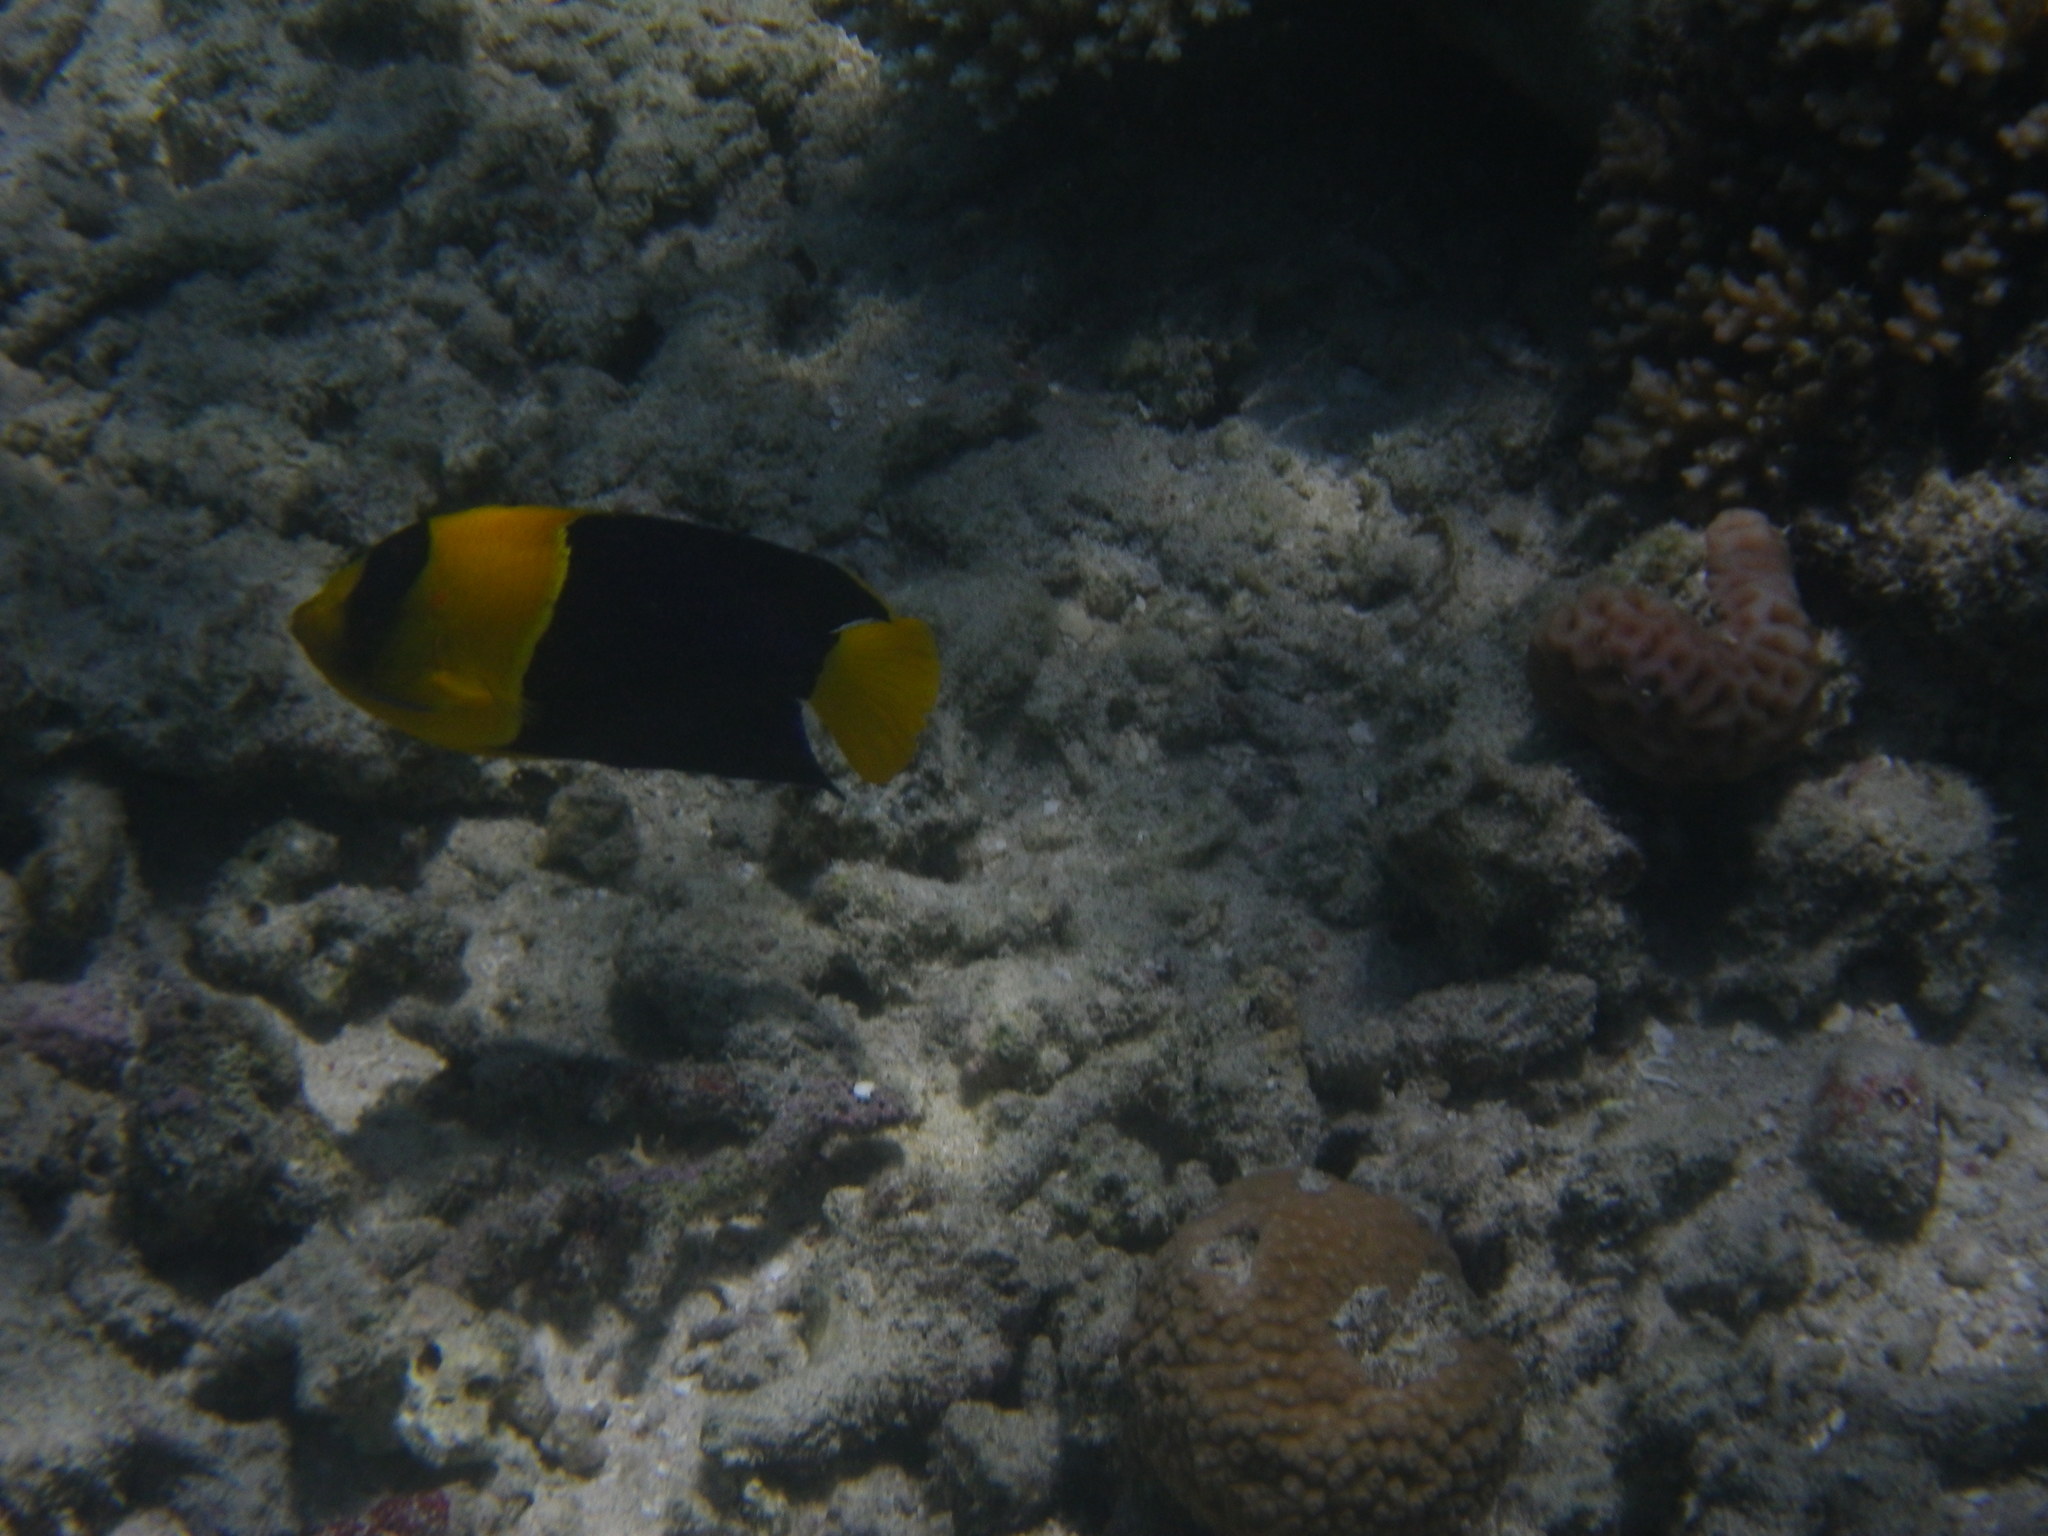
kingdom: Animalia
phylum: Chordata
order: Perciformes
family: Pomacanthidae
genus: Centropyge
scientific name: Centropyge bicolor
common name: Bicolor angelfish
